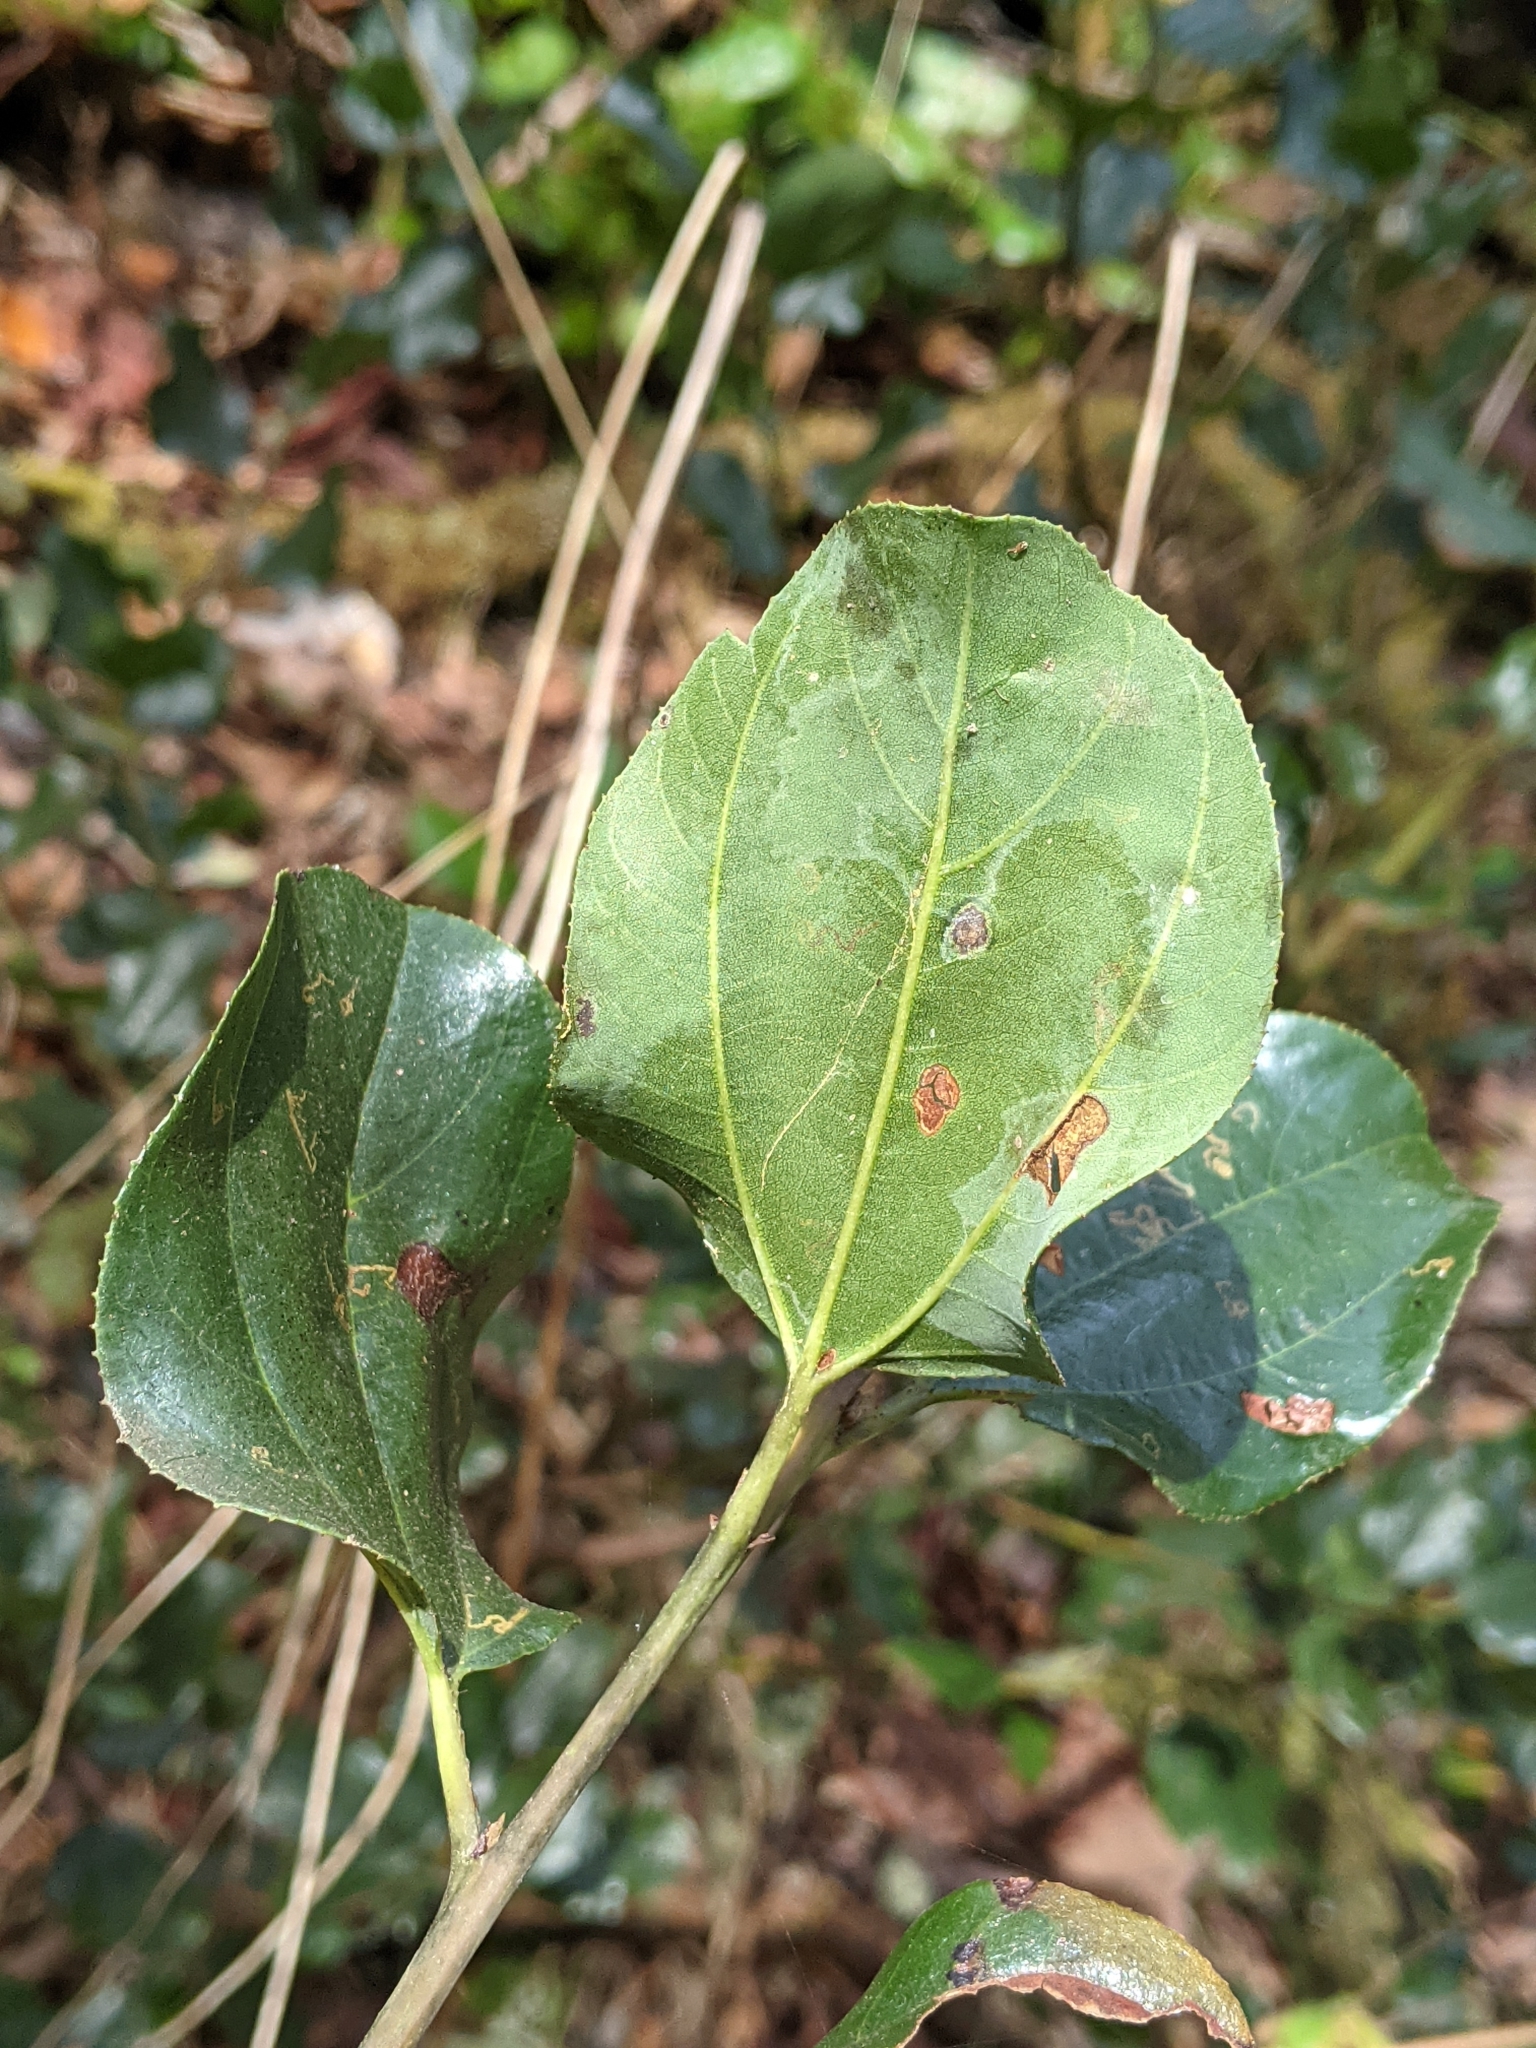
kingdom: Plantae
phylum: Tracheophyta
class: Magnoliopsida
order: Rosales
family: Rhamnaceae
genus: Ceanothus
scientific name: Ceanothus velutinus
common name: Snowbrush
